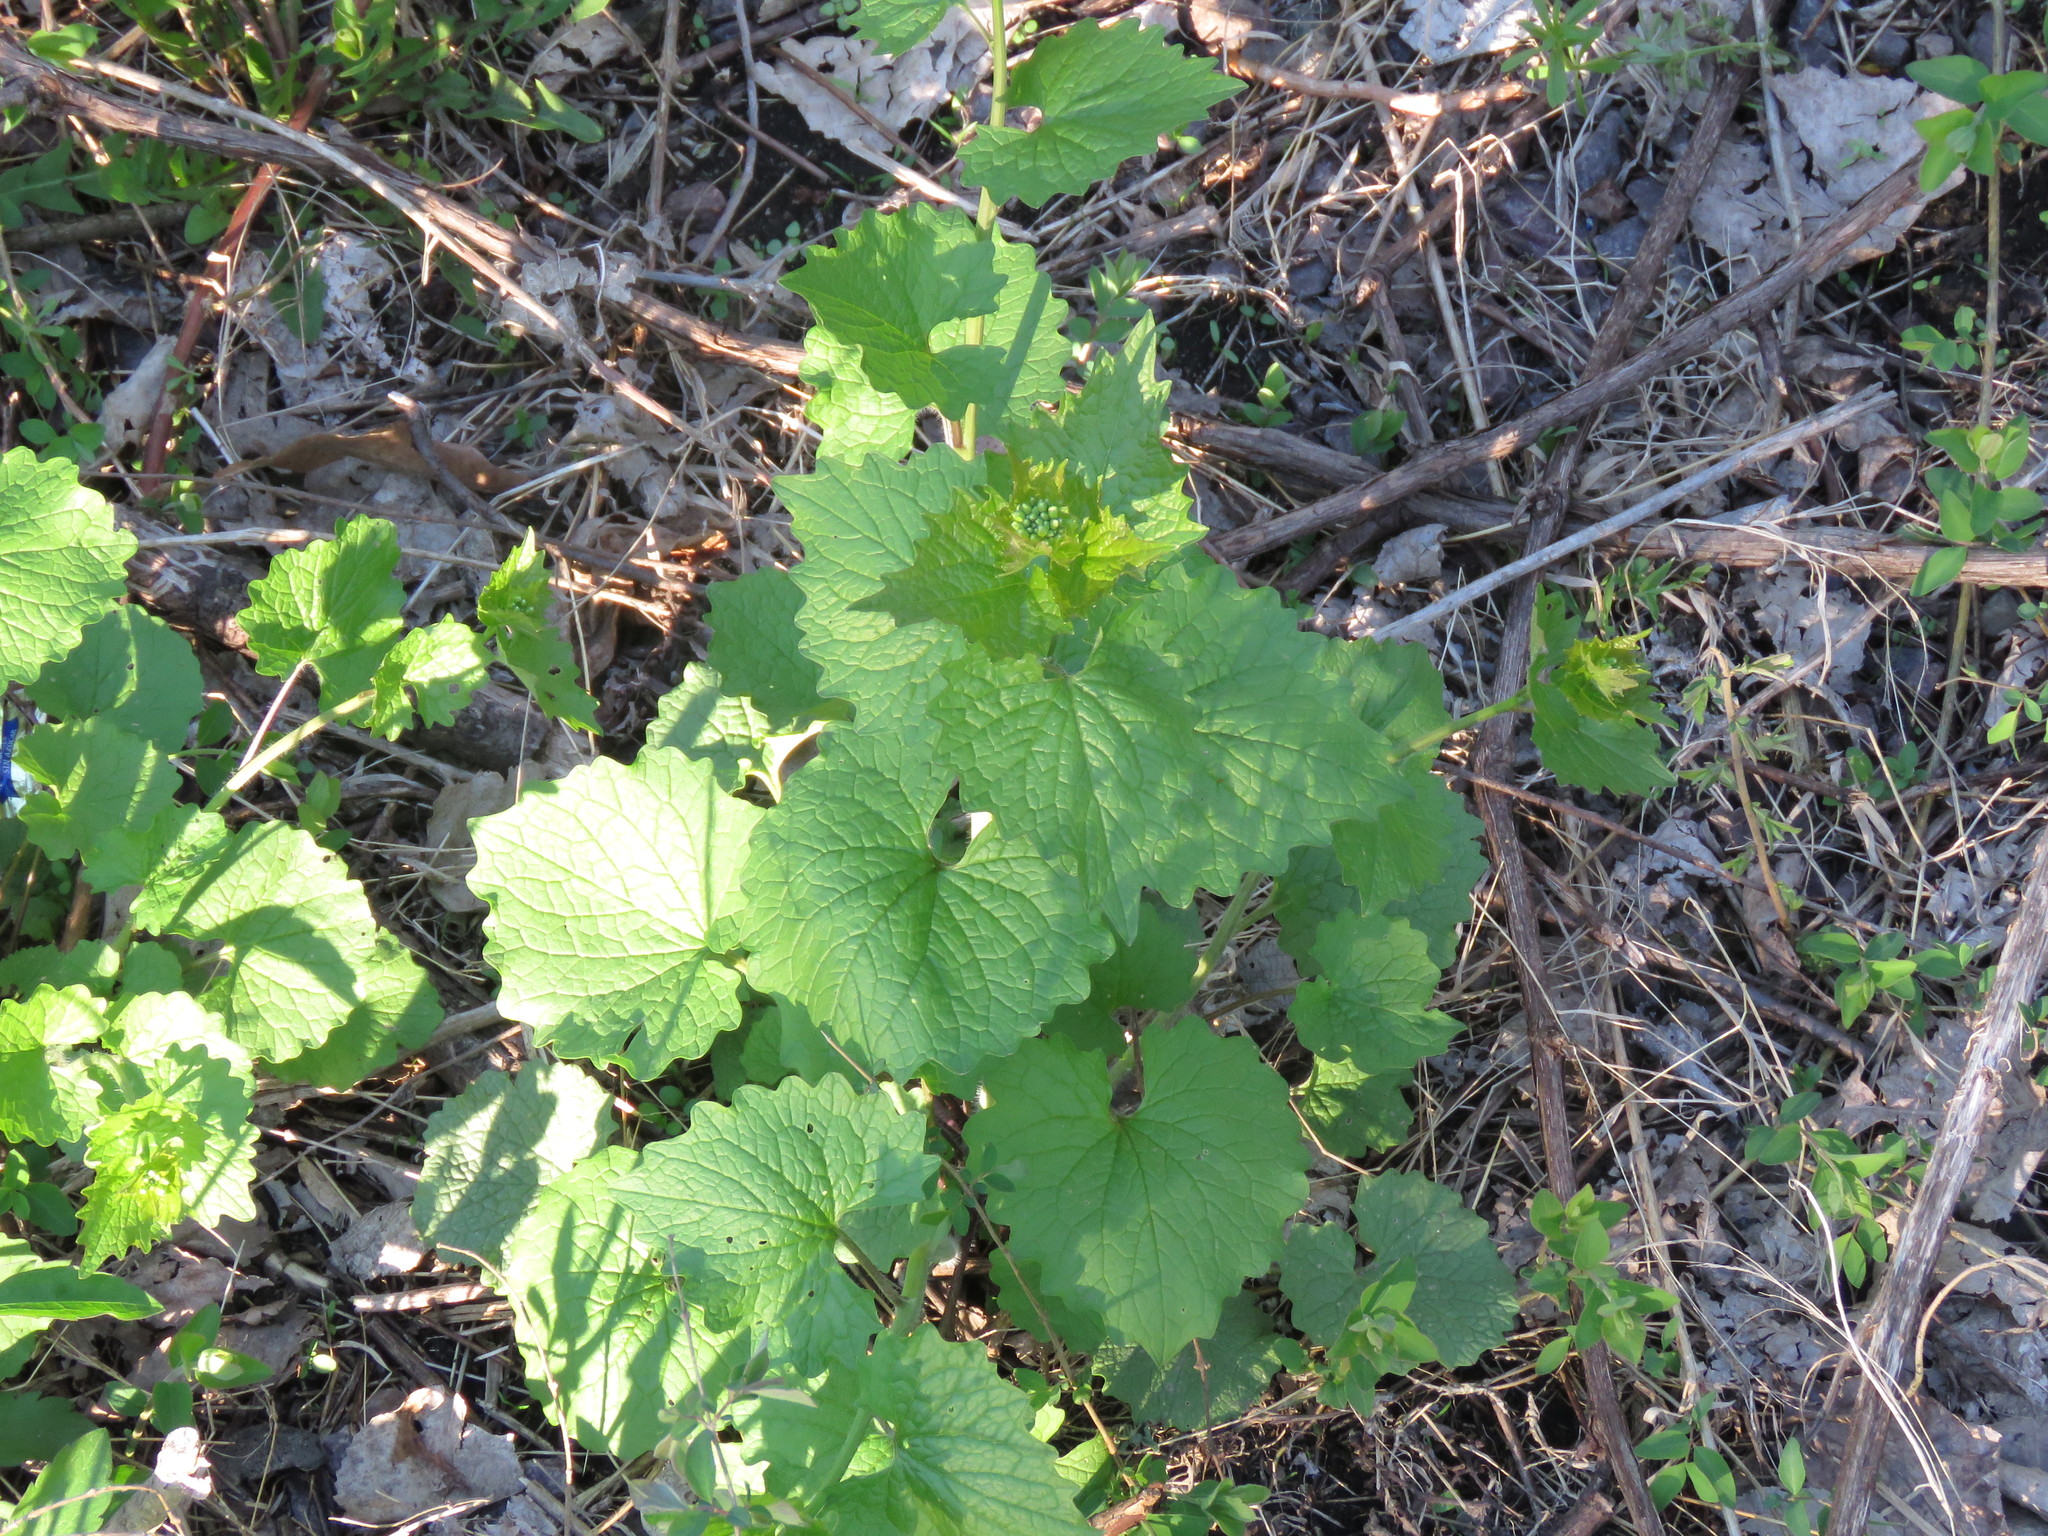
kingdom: Plantae
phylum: Tracheophyta
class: Magnoliopsida
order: Brassicales
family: Brassicaceae
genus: Alliaria
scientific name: Alliaria petiolata
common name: Garlic mustard
